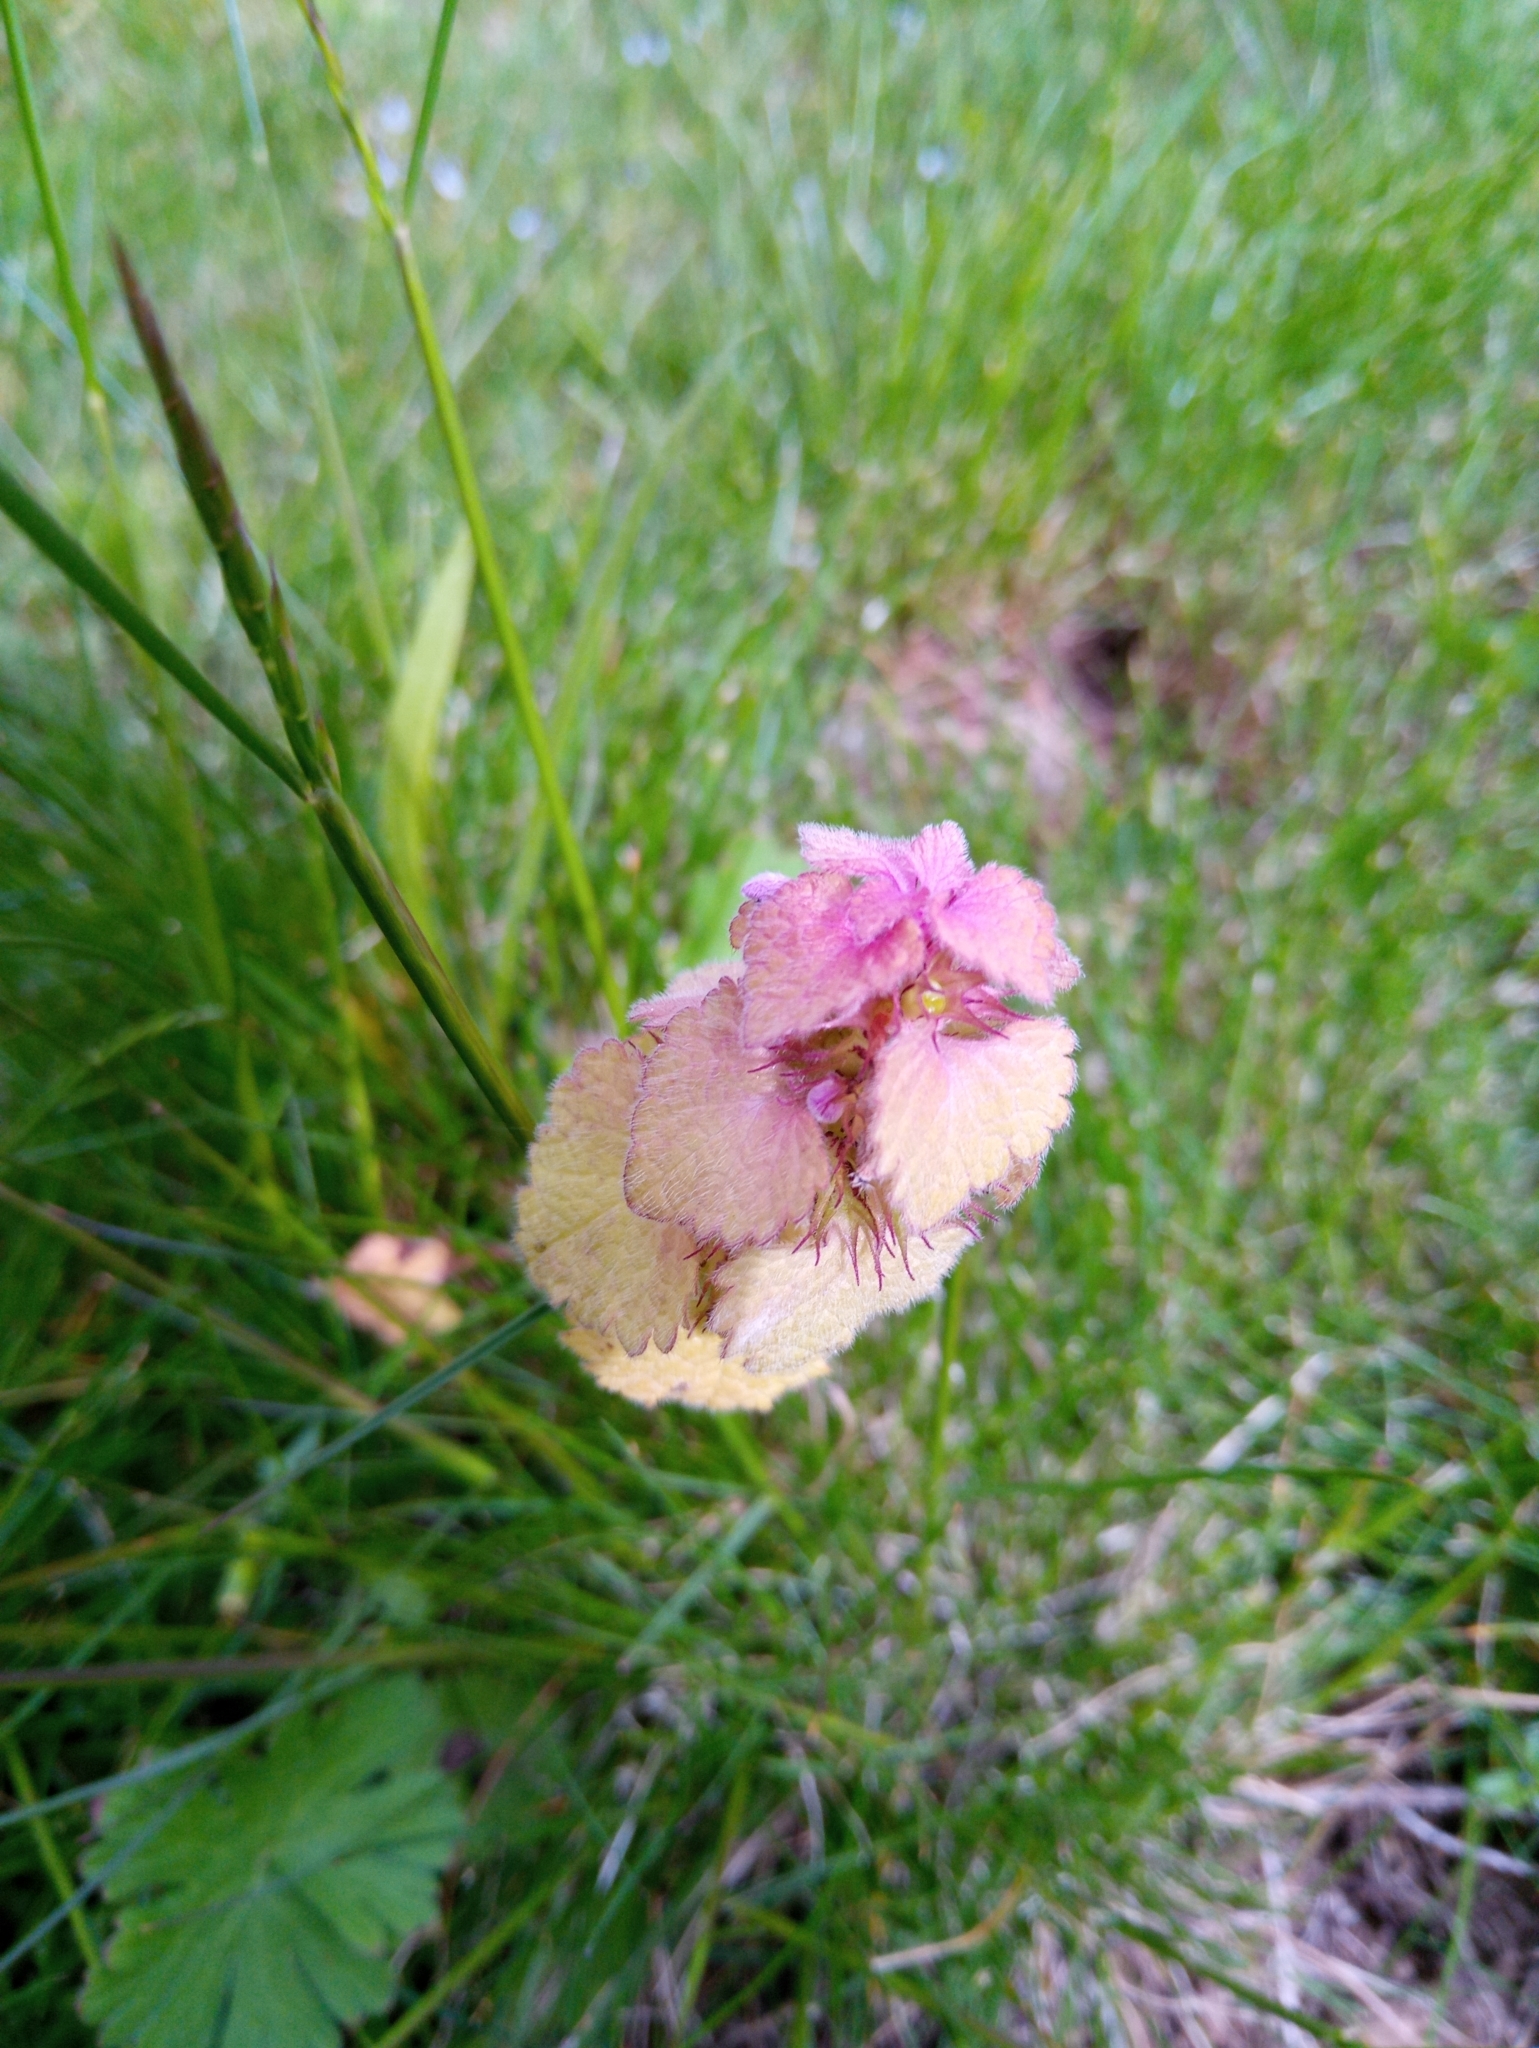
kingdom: Plantae
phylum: Tracheophyta
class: Magnoliopsida
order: Lamiales
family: Lamiaceae
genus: Lamium
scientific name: Lamium purpureum
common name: Red dead-nettle
